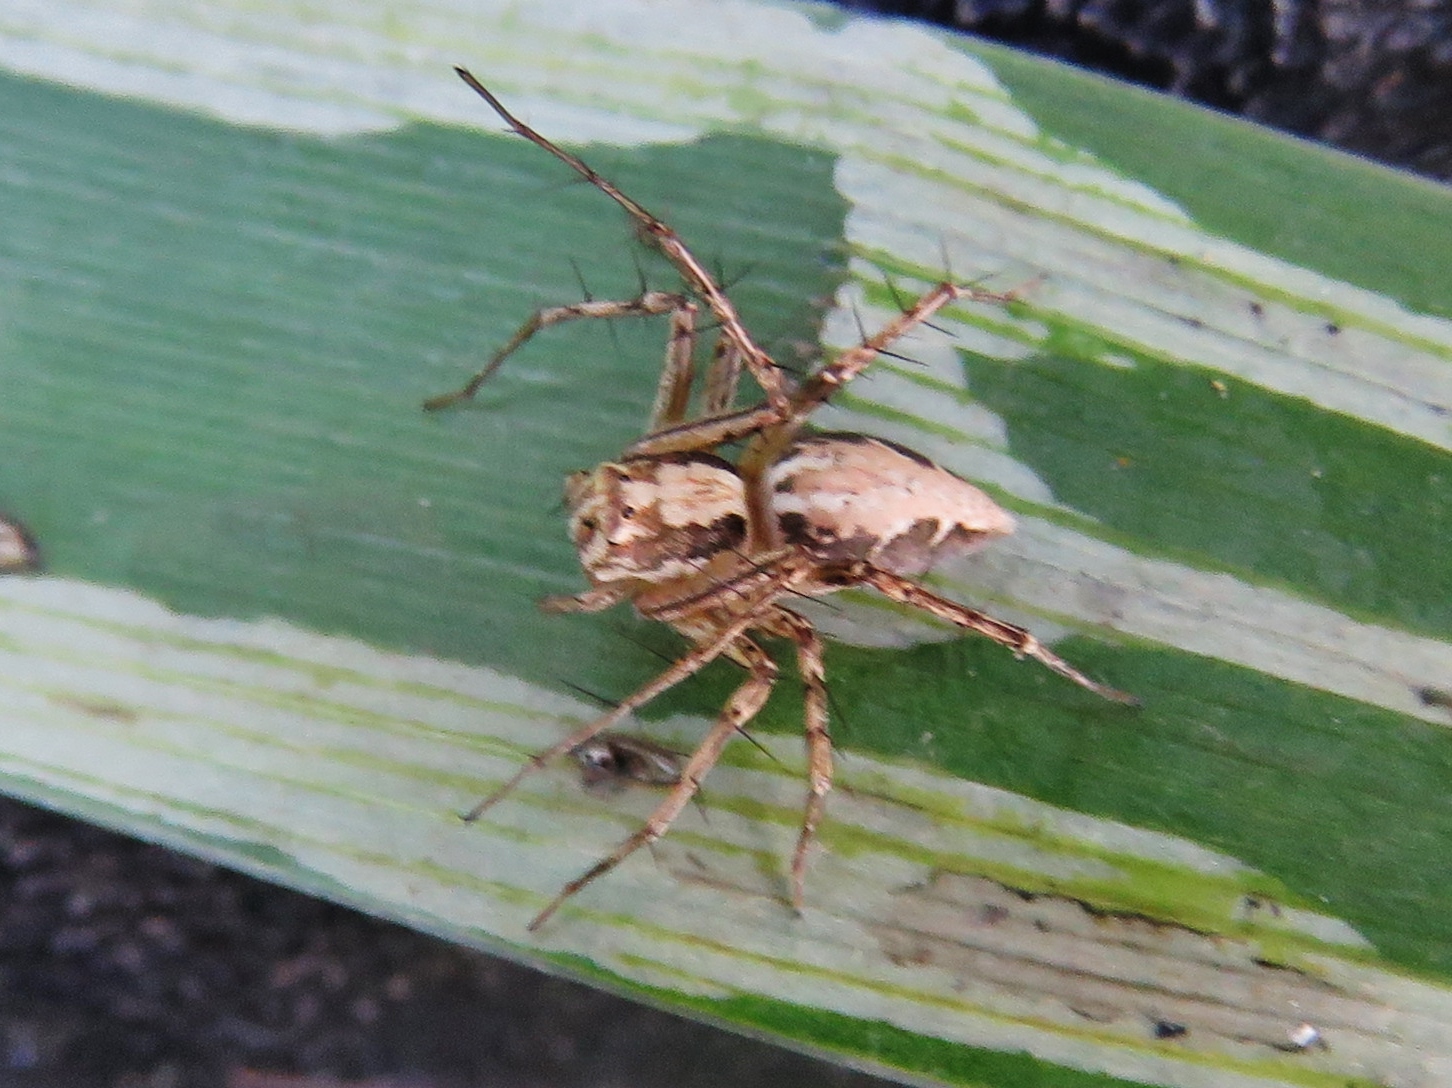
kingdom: Animalia
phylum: Arthropoda
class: Arachnida
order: Araneae
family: Oxyopidae
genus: Oxyopes
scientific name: Oxyopes acleistus
